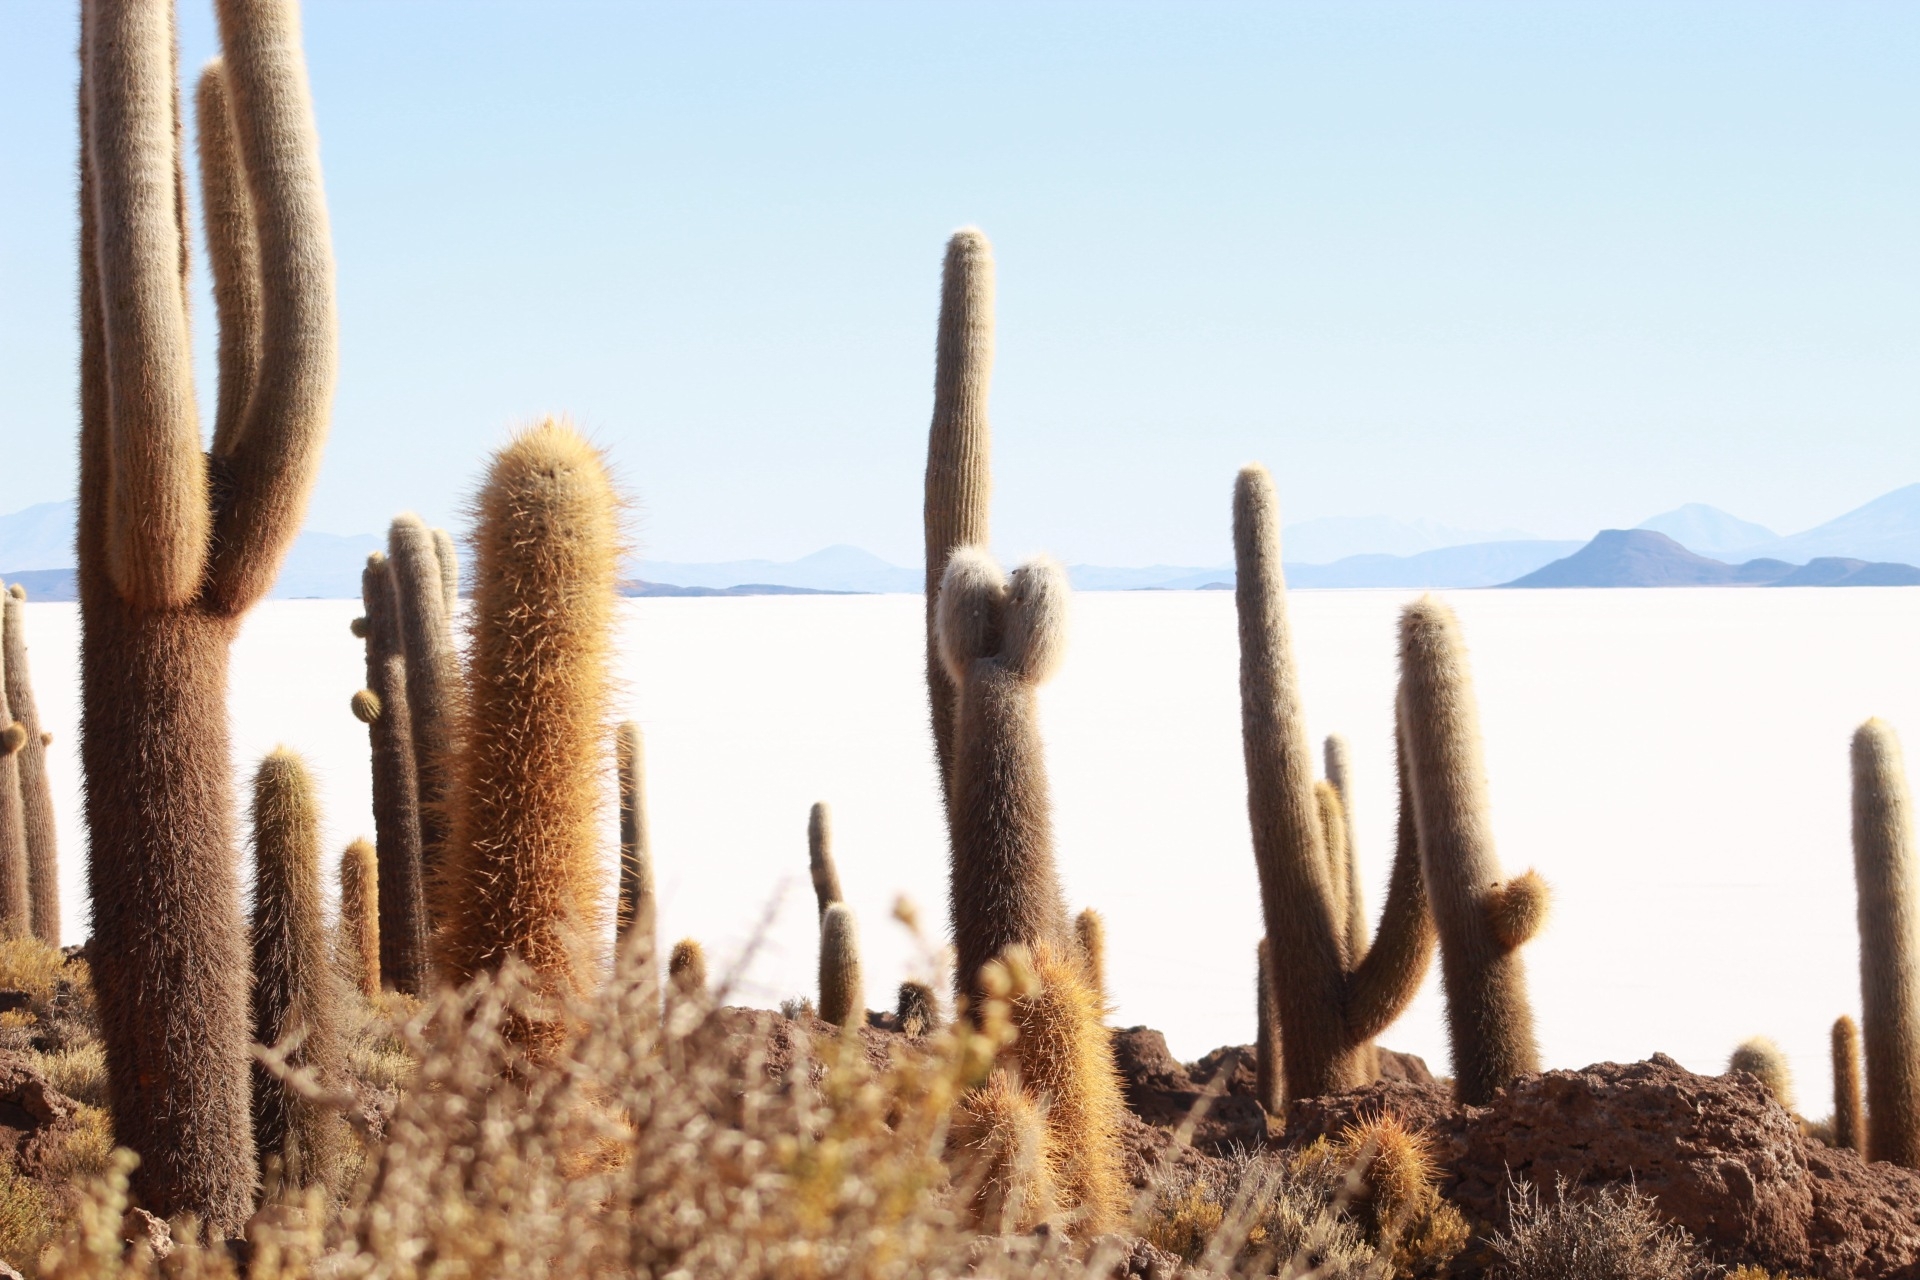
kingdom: Plantae
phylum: Tracheophyta
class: Magnoliopsida
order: Caryophyllales
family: Cactaceae
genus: Leucostele
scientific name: Leucostele atacamensis
